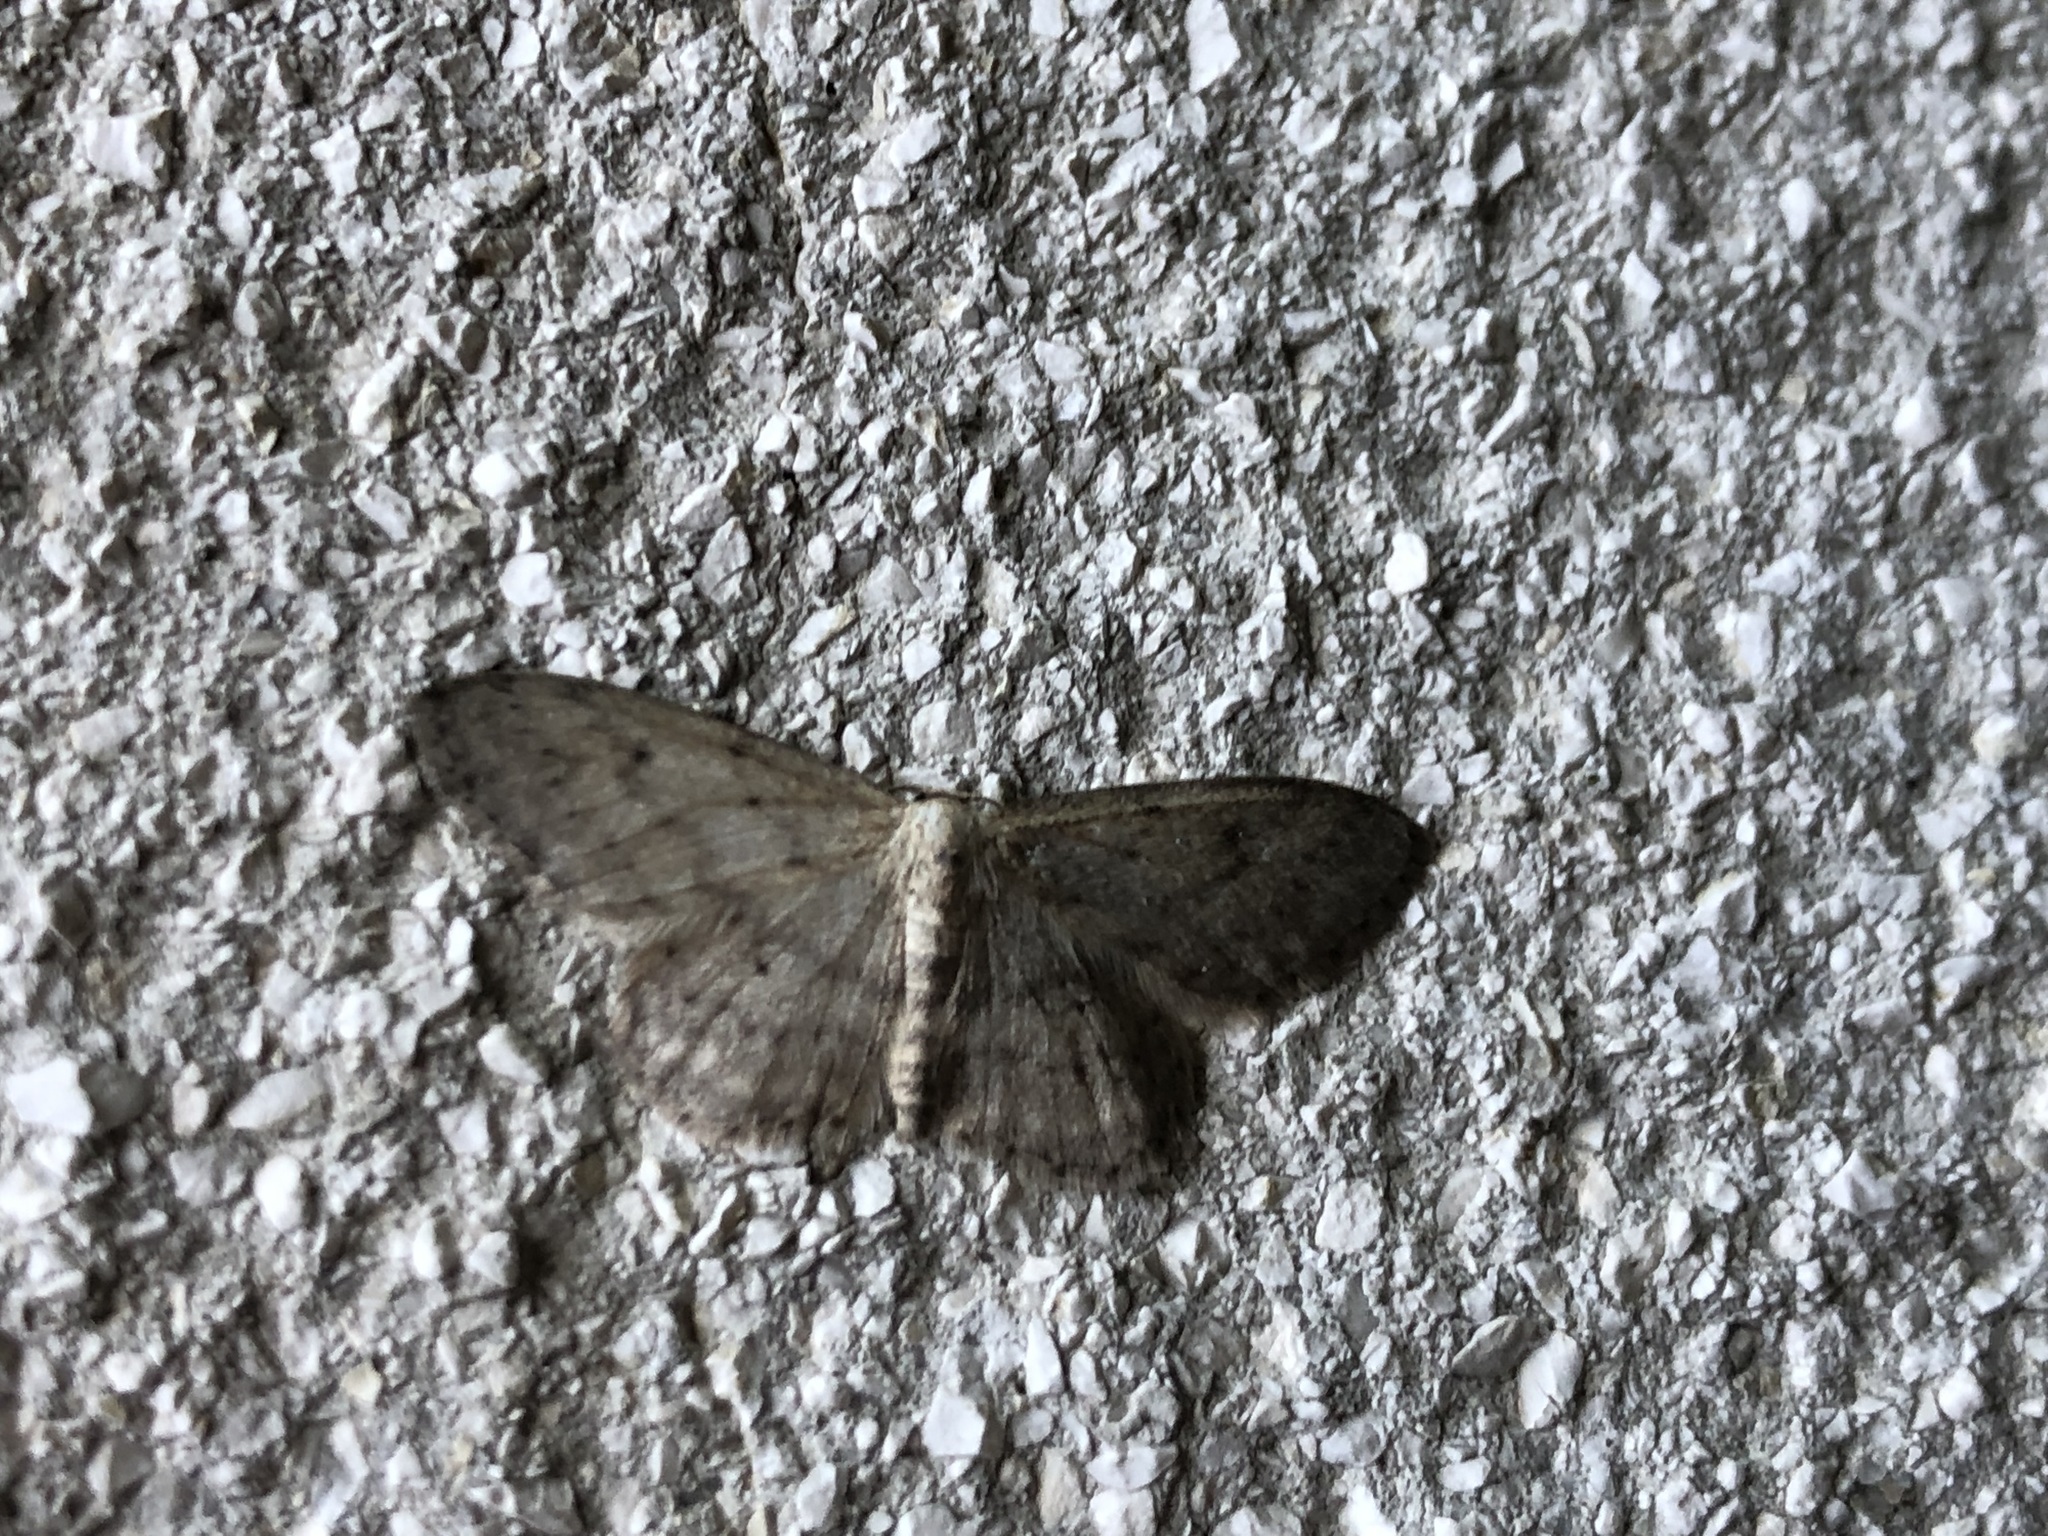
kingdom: Animalia
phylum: Arthropoda
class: Insecta
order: Lepidoptera
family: Geometridae
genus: Idaea
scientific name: Idaea seriata
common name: Small dusty wave
